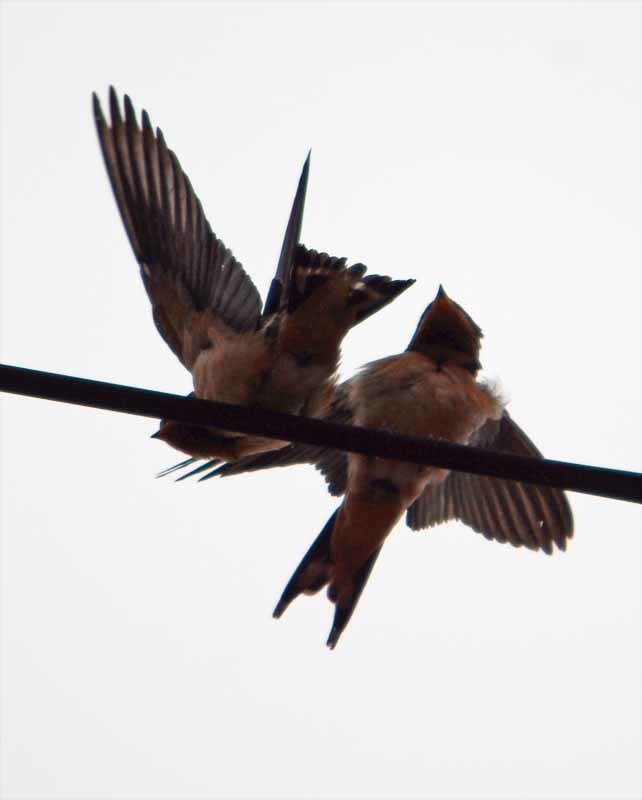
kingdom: Animalia
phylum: Chordata
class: Aves
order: Passeriformes
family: Hirundinidae
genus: Hirundo
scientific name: Hirundo rustica
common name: Barn swallow
